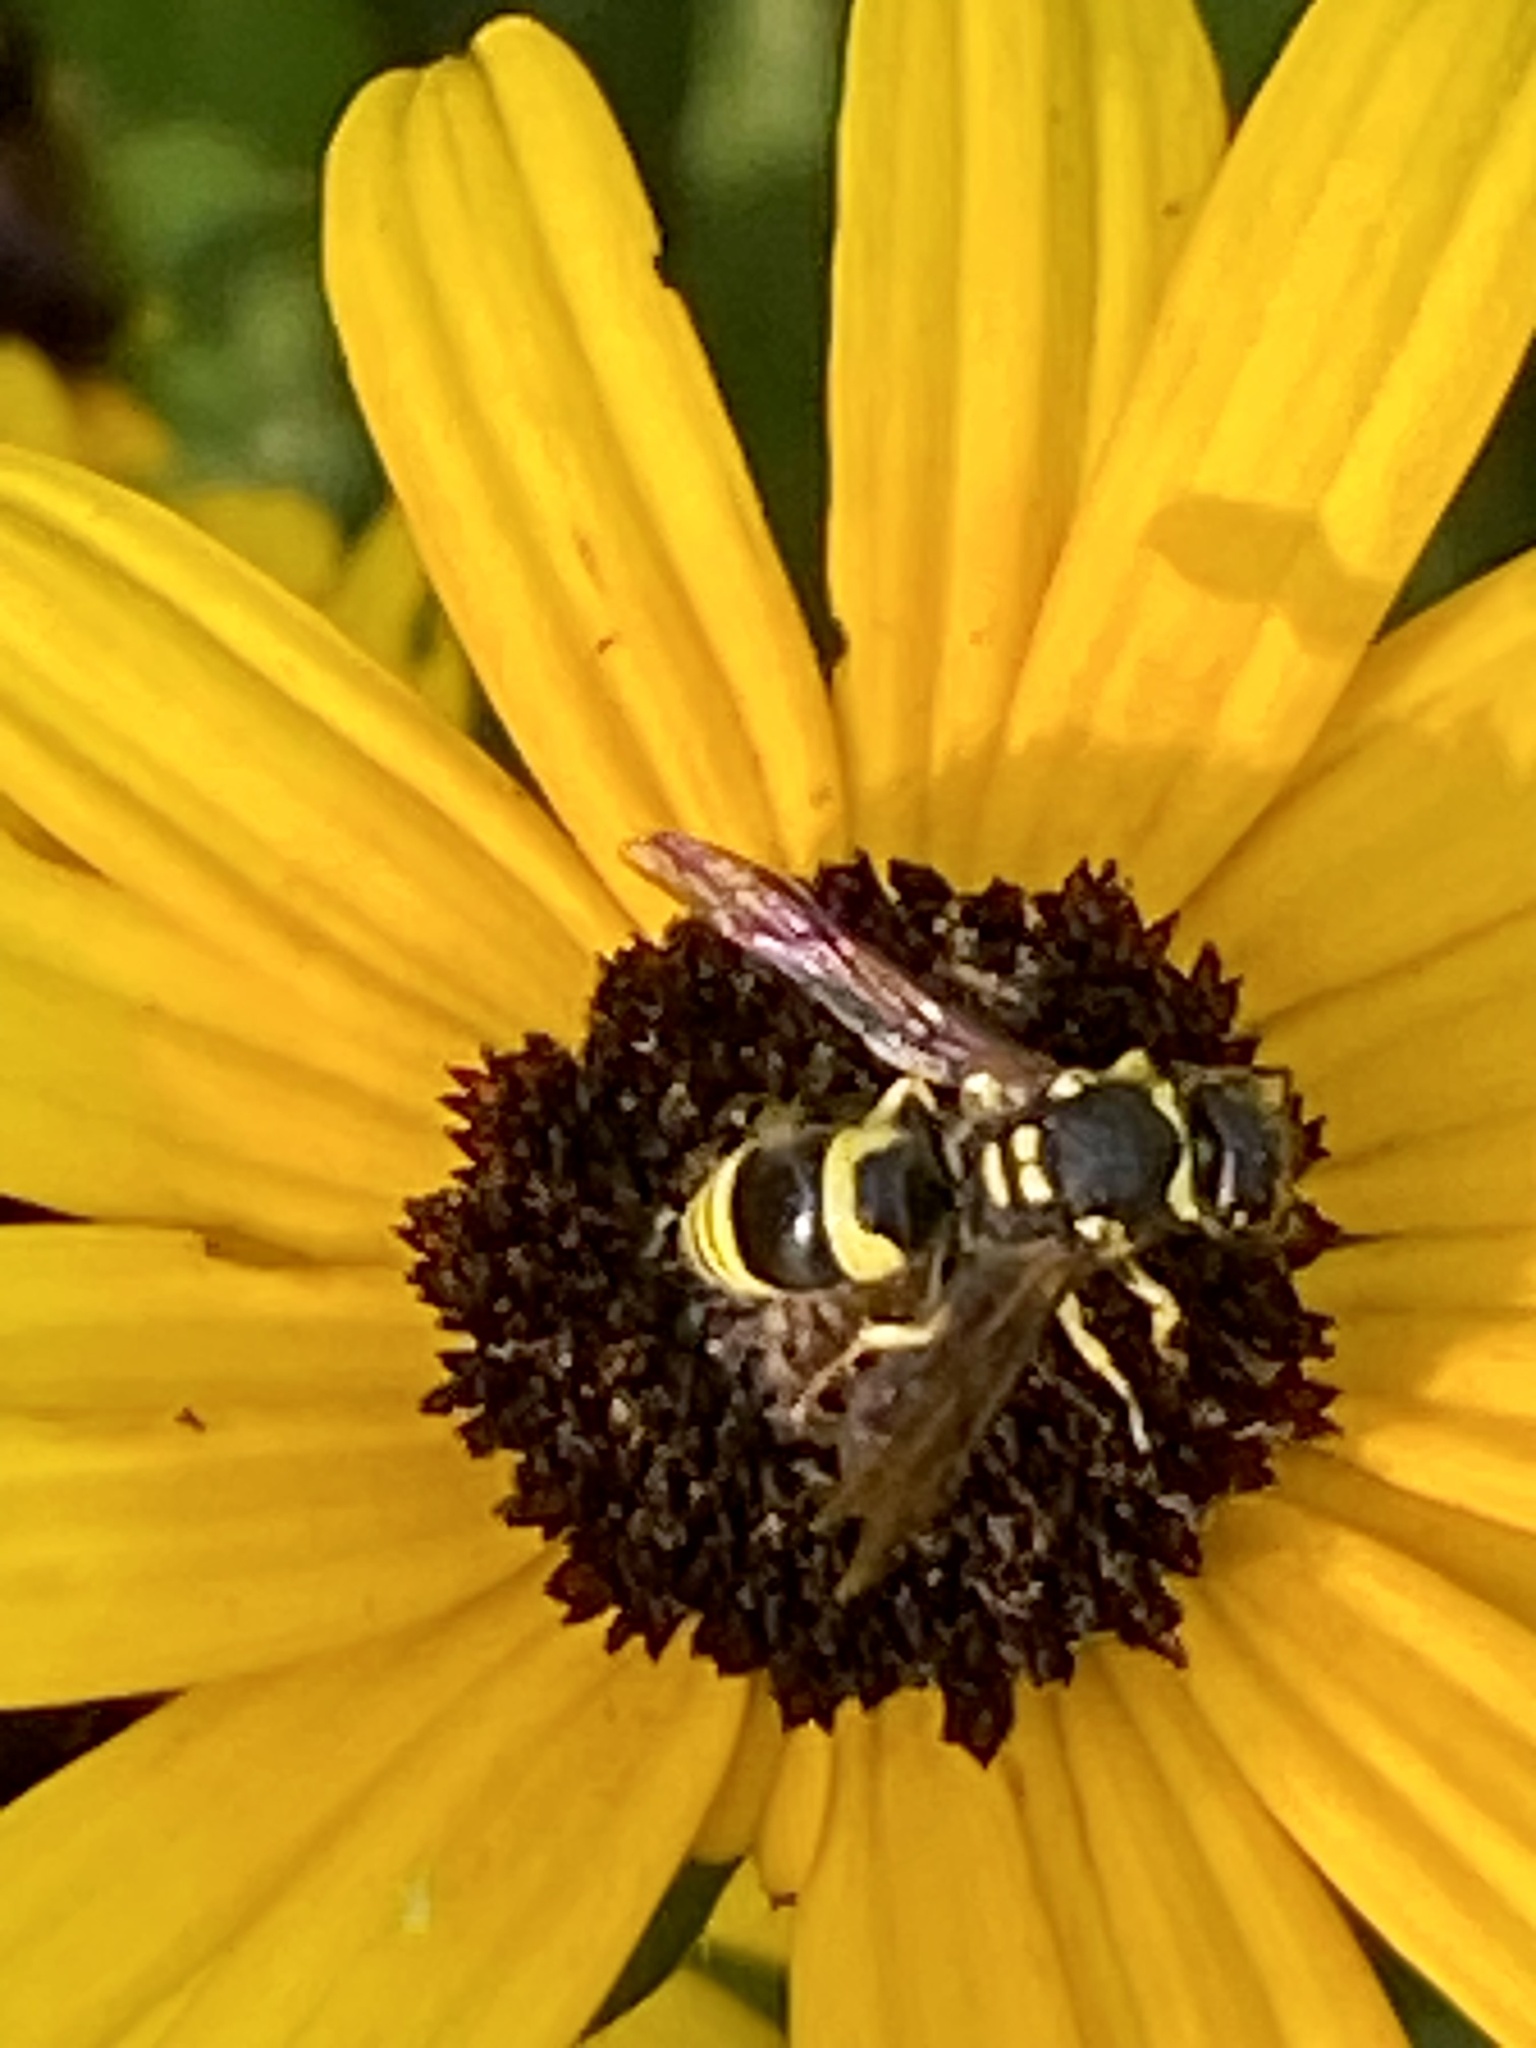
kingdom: Animalia
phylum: Arthropoda
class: Insecta
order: Hymenoptera
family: Vespidae
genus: Ancistrocerus
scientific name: Ancistrocerus gazella
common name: European tube wasp
